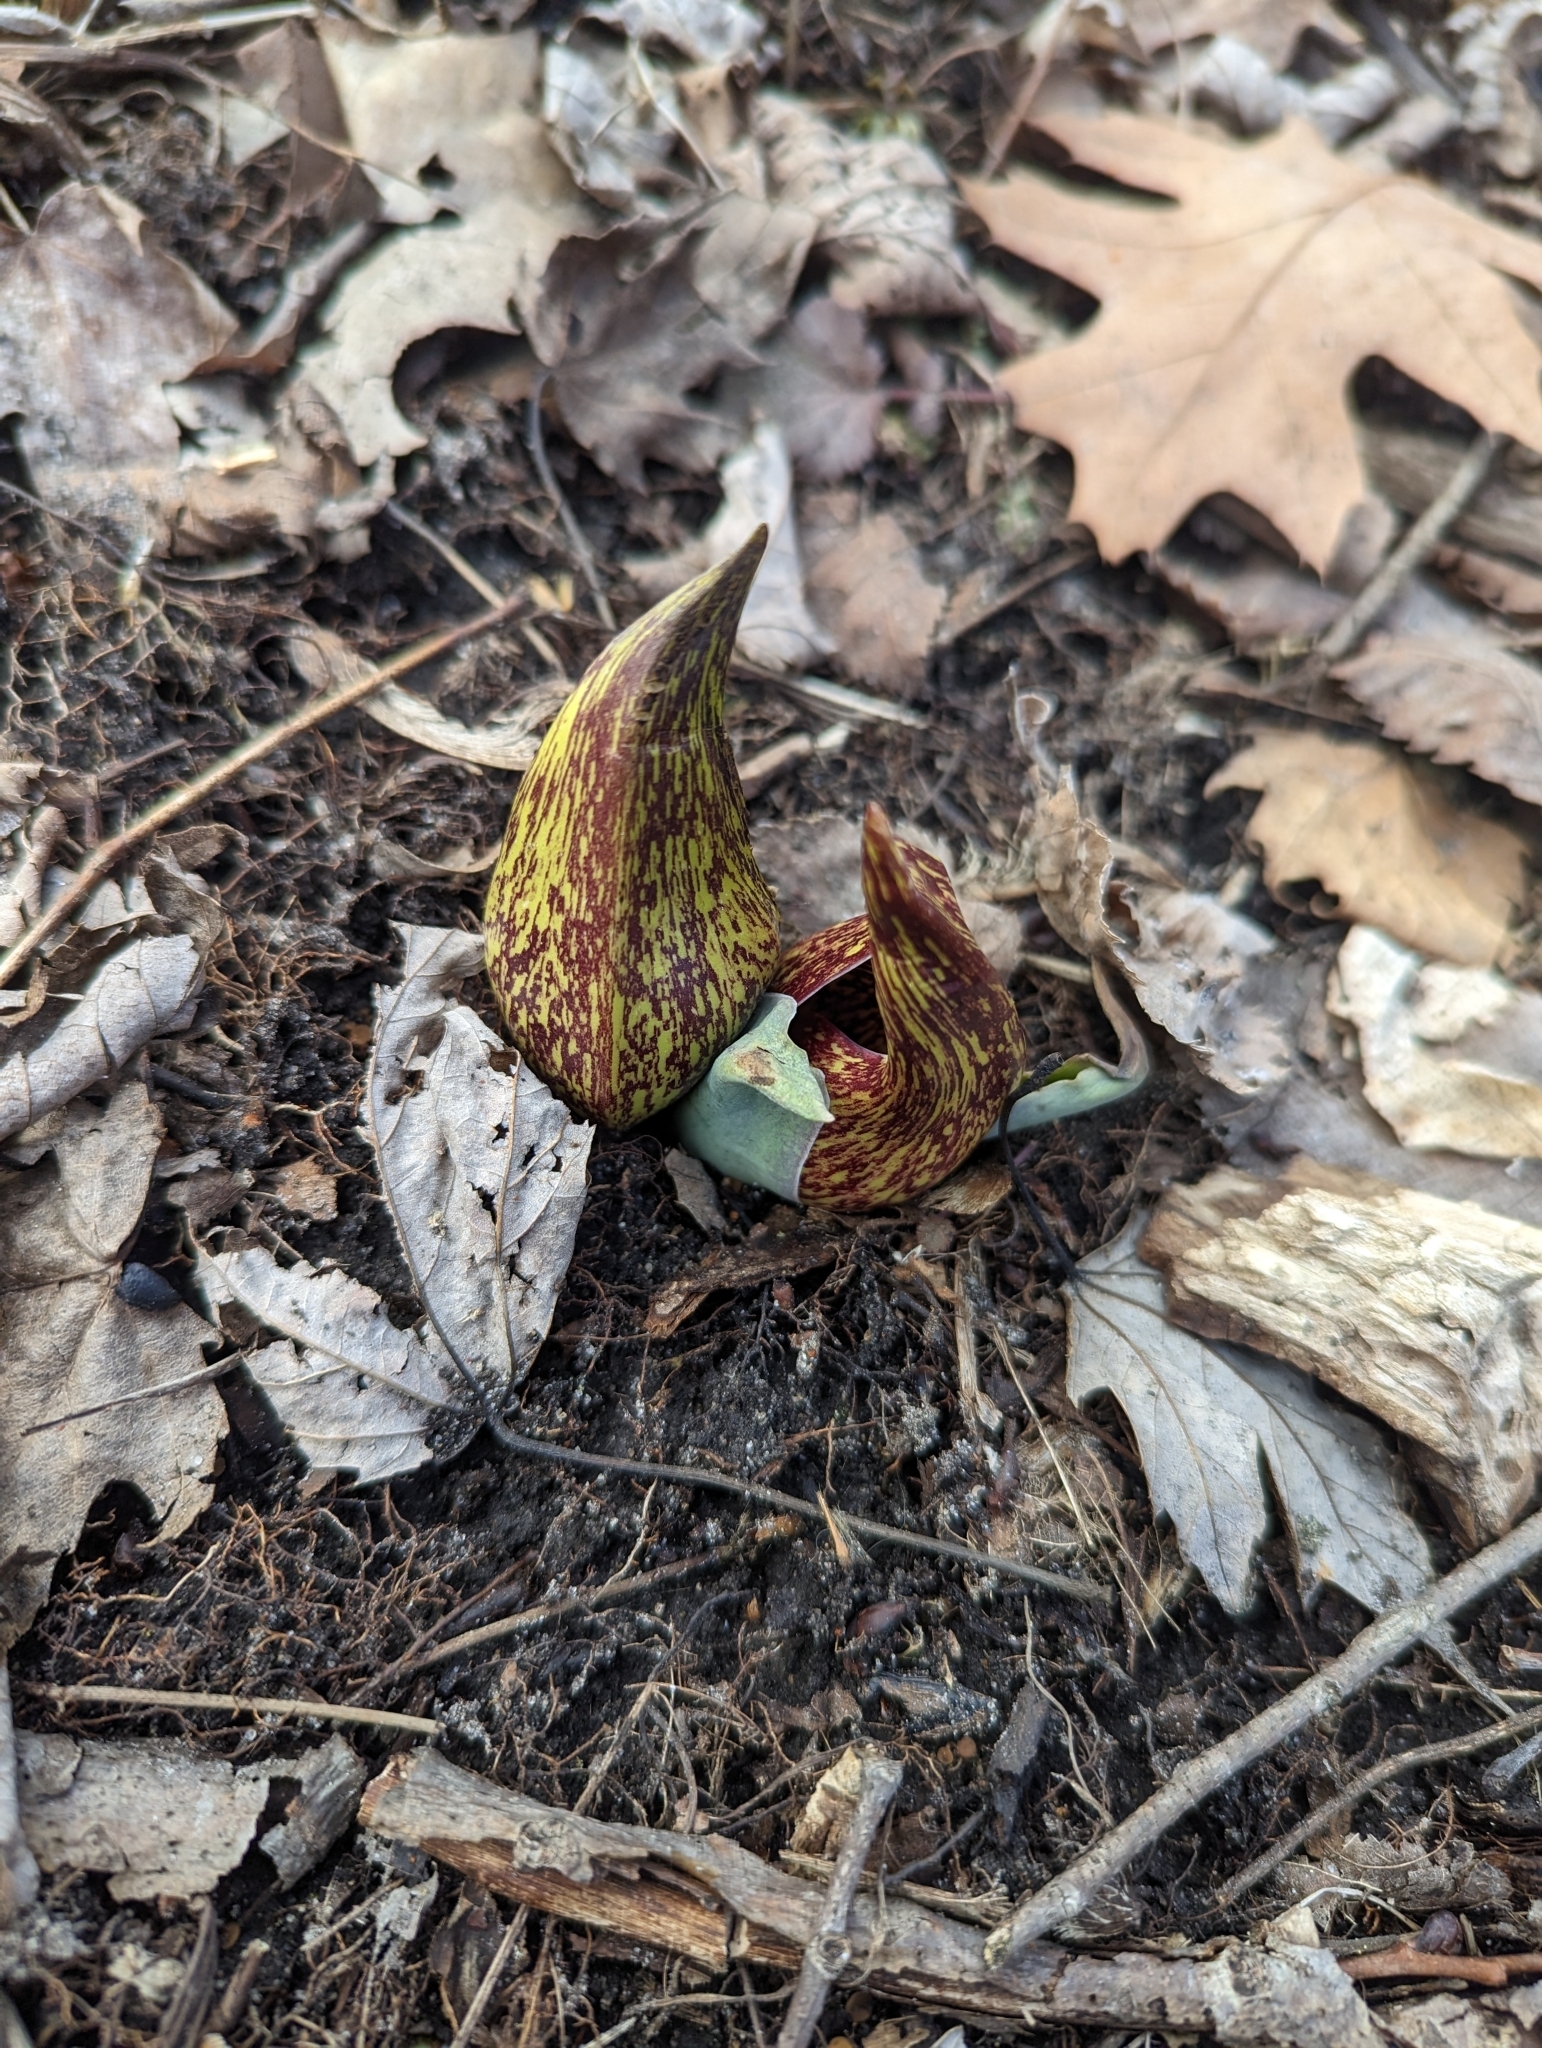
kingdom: Plantae
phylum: Tracheophyta
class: Liliopsida
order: Alismatales
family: Araceae
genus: Symplocarpus
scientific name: Symplocarpus foetidus
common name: Eastern skunk cabbage
